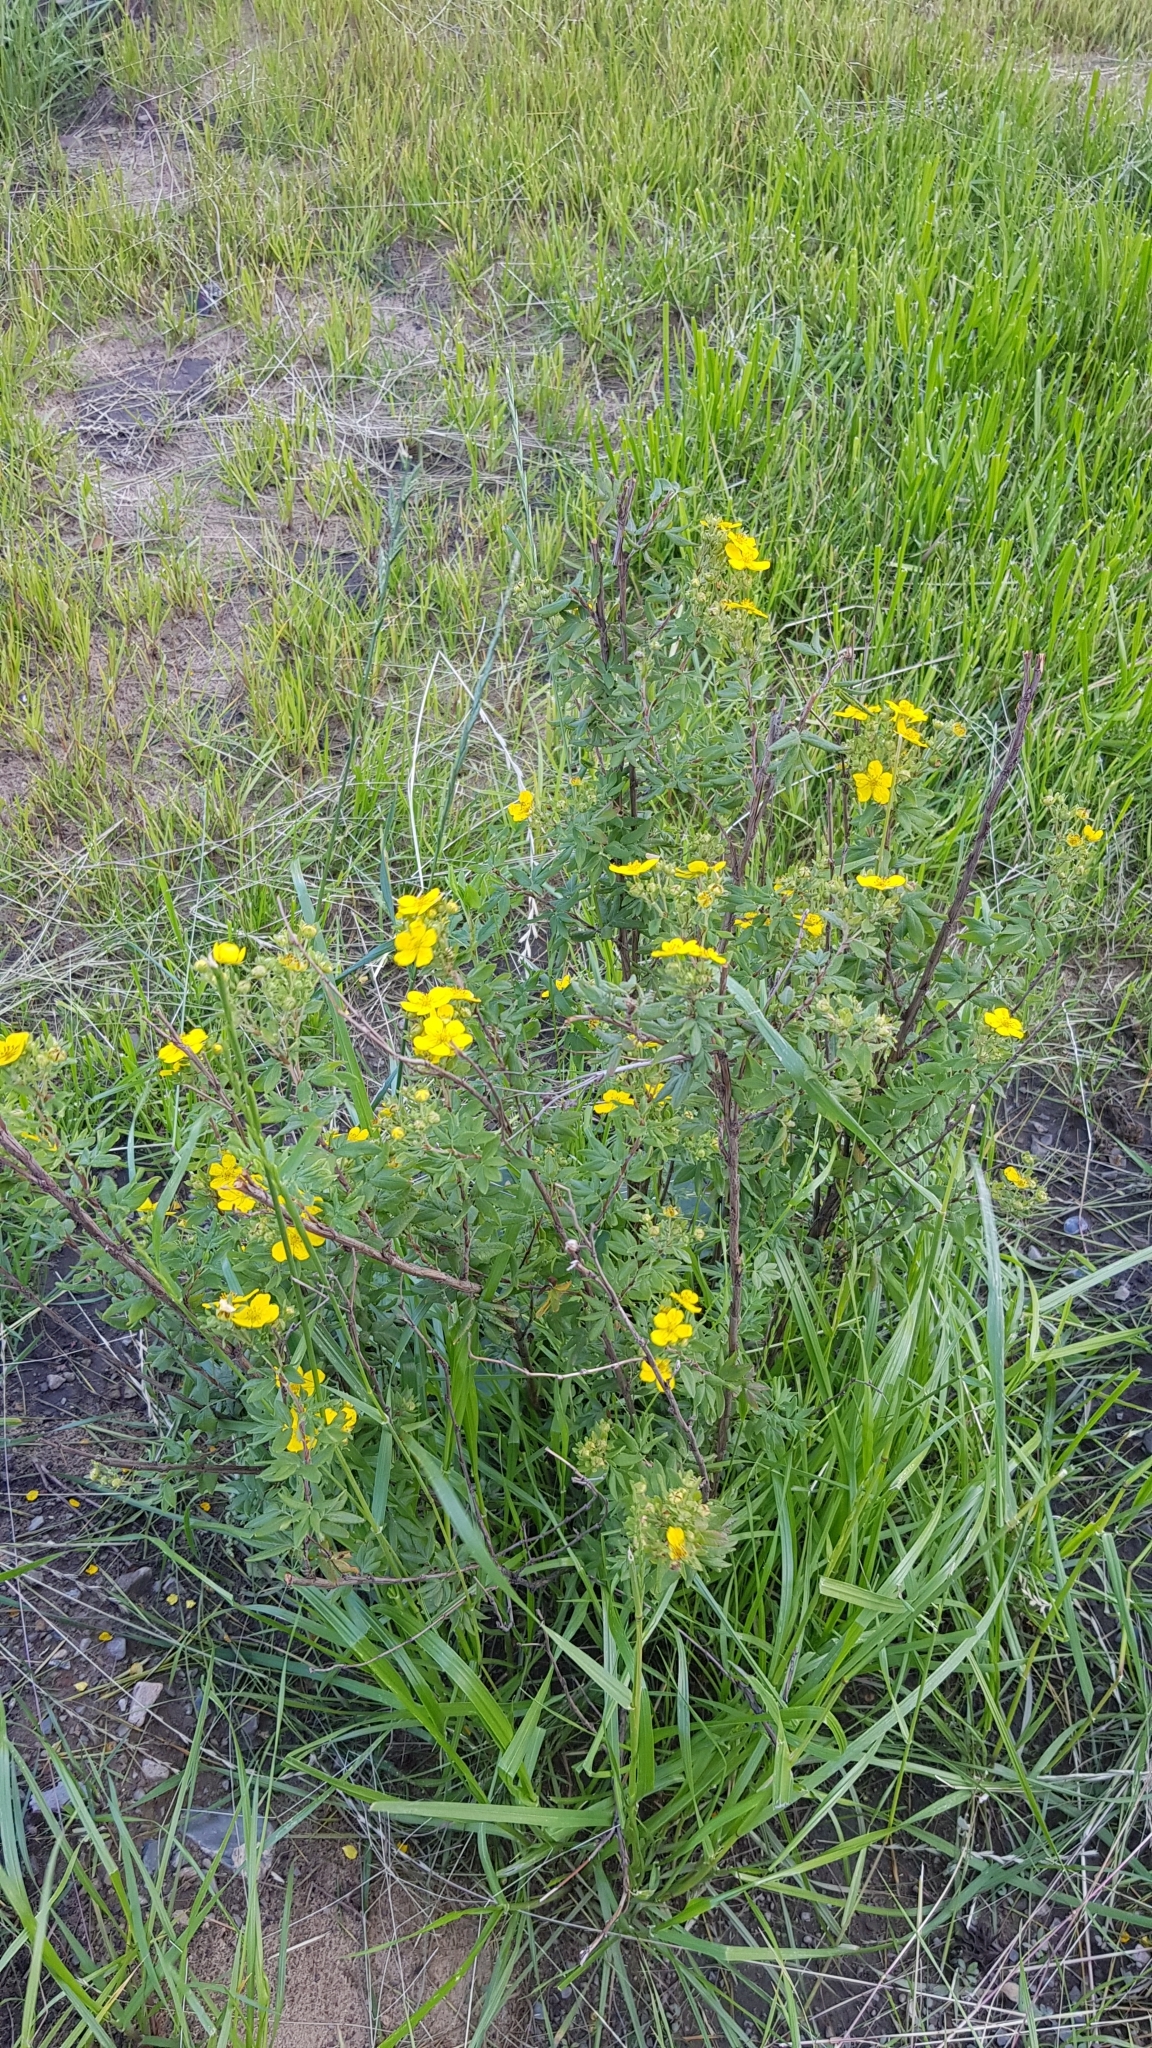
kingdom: Plantae
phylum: Tracheophyta
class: Magnoliopsida
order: Rosales
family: Rosaceae
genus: Dasiphora
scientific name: Dasiphora fruticosa
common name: Shrubby cinquefoil
